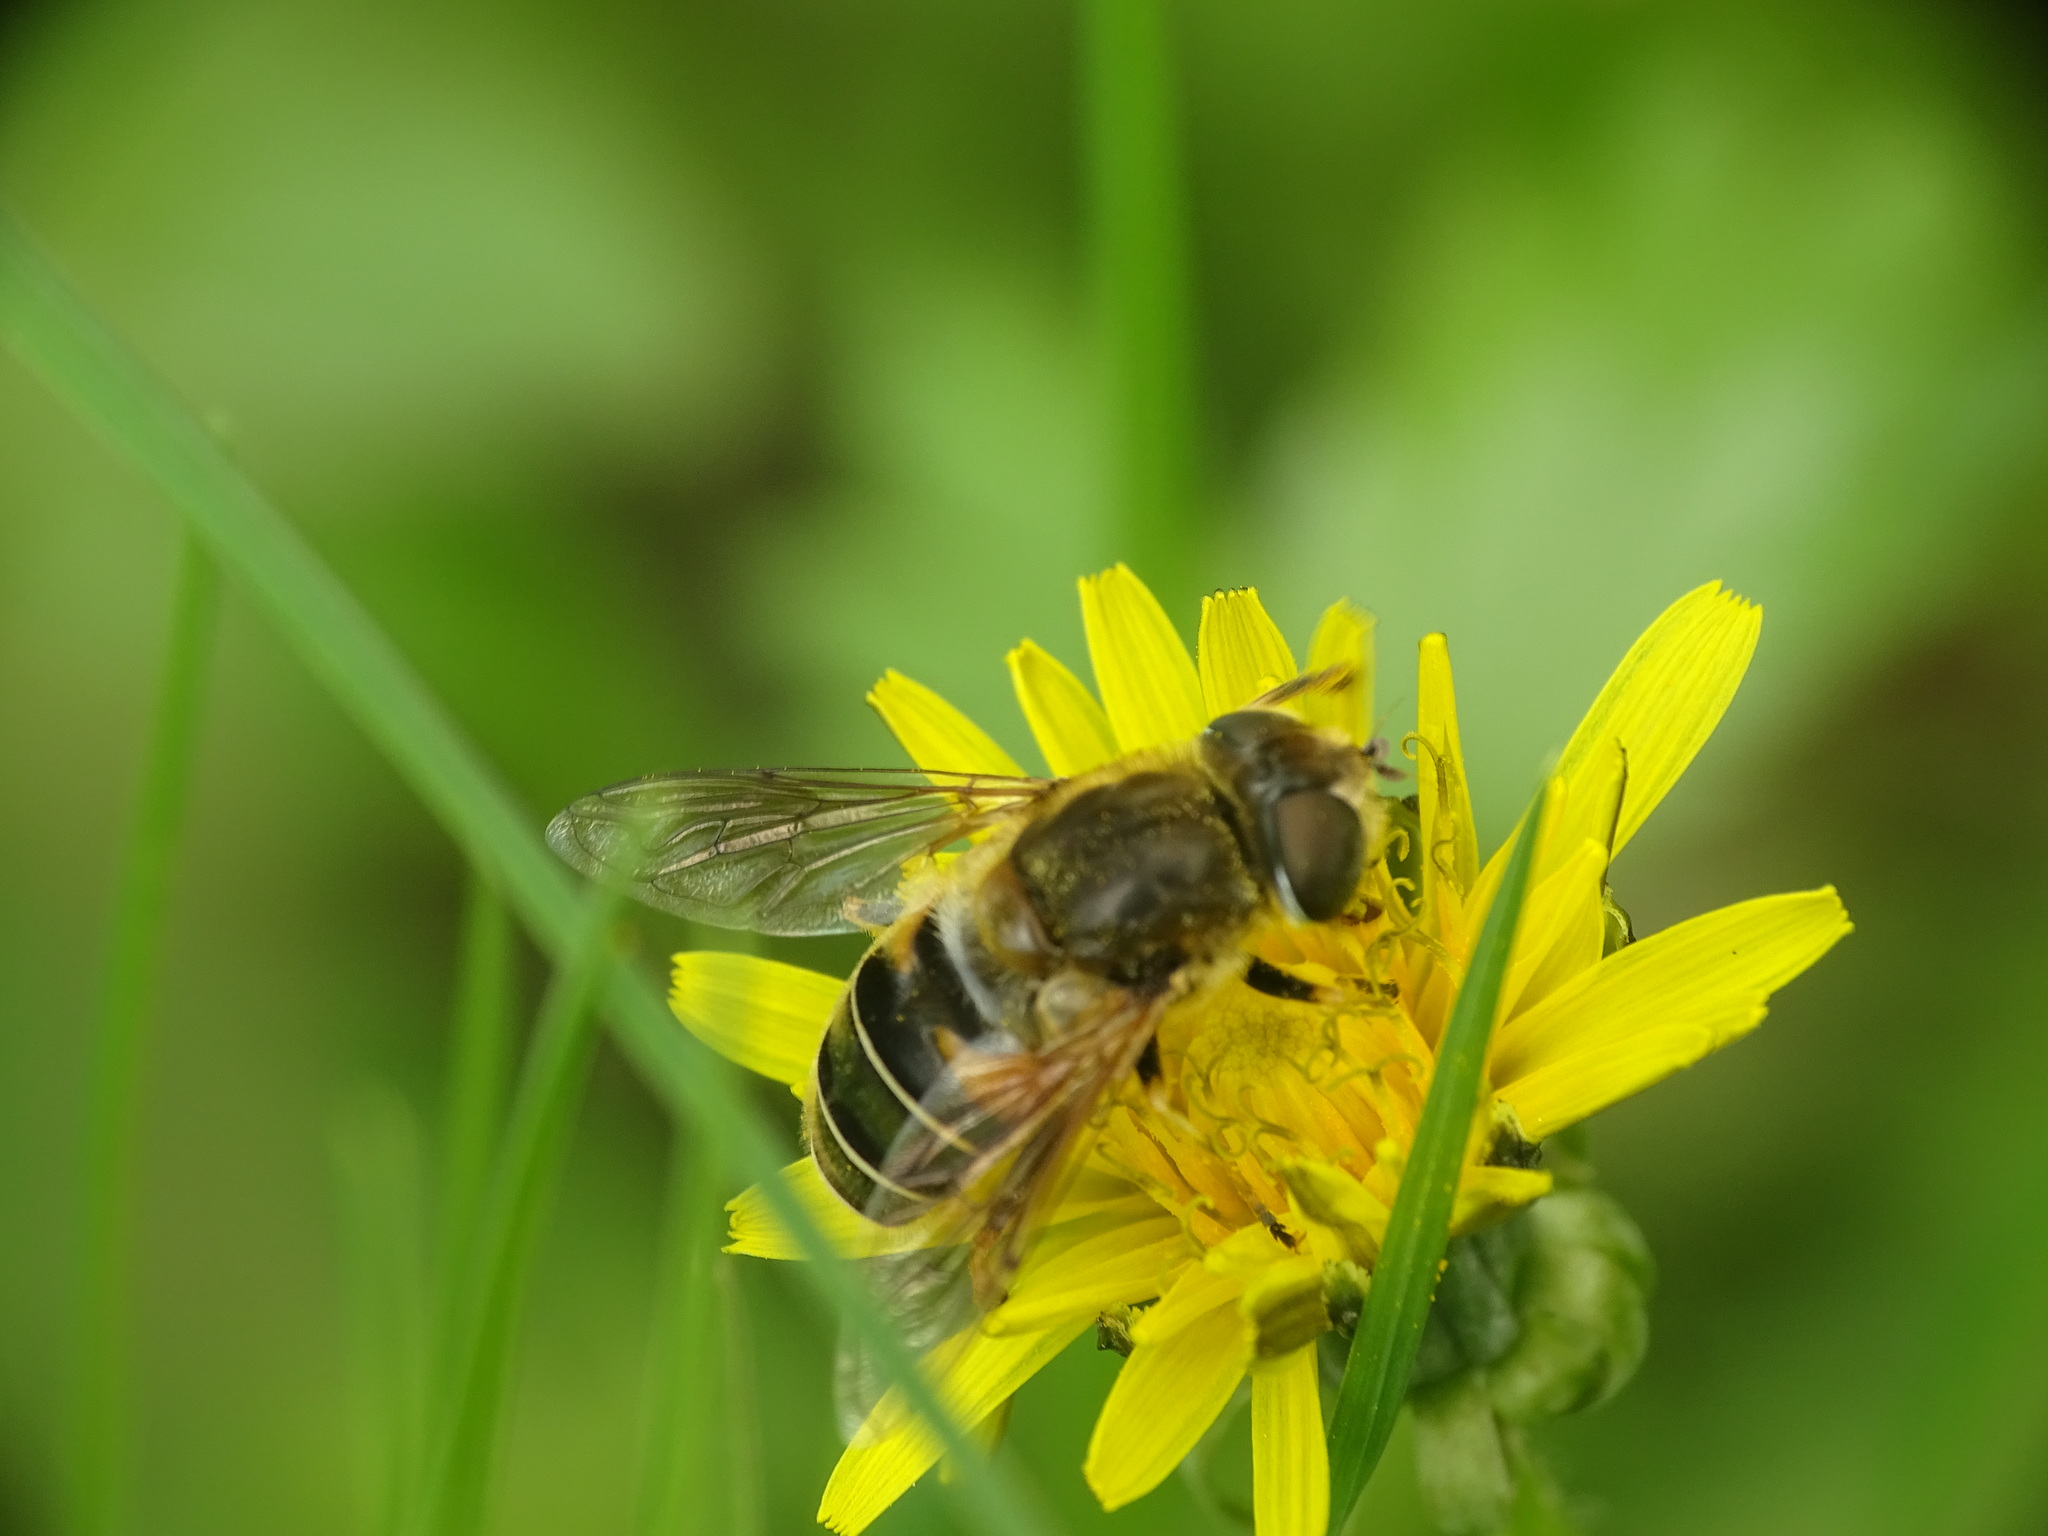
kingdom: Animalia
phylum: Arthropoda
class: Insecta
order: Diptera
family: Syrphidae
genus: Eristalis
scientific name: Eristalis nemorum
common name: Orange-spined drone fly
